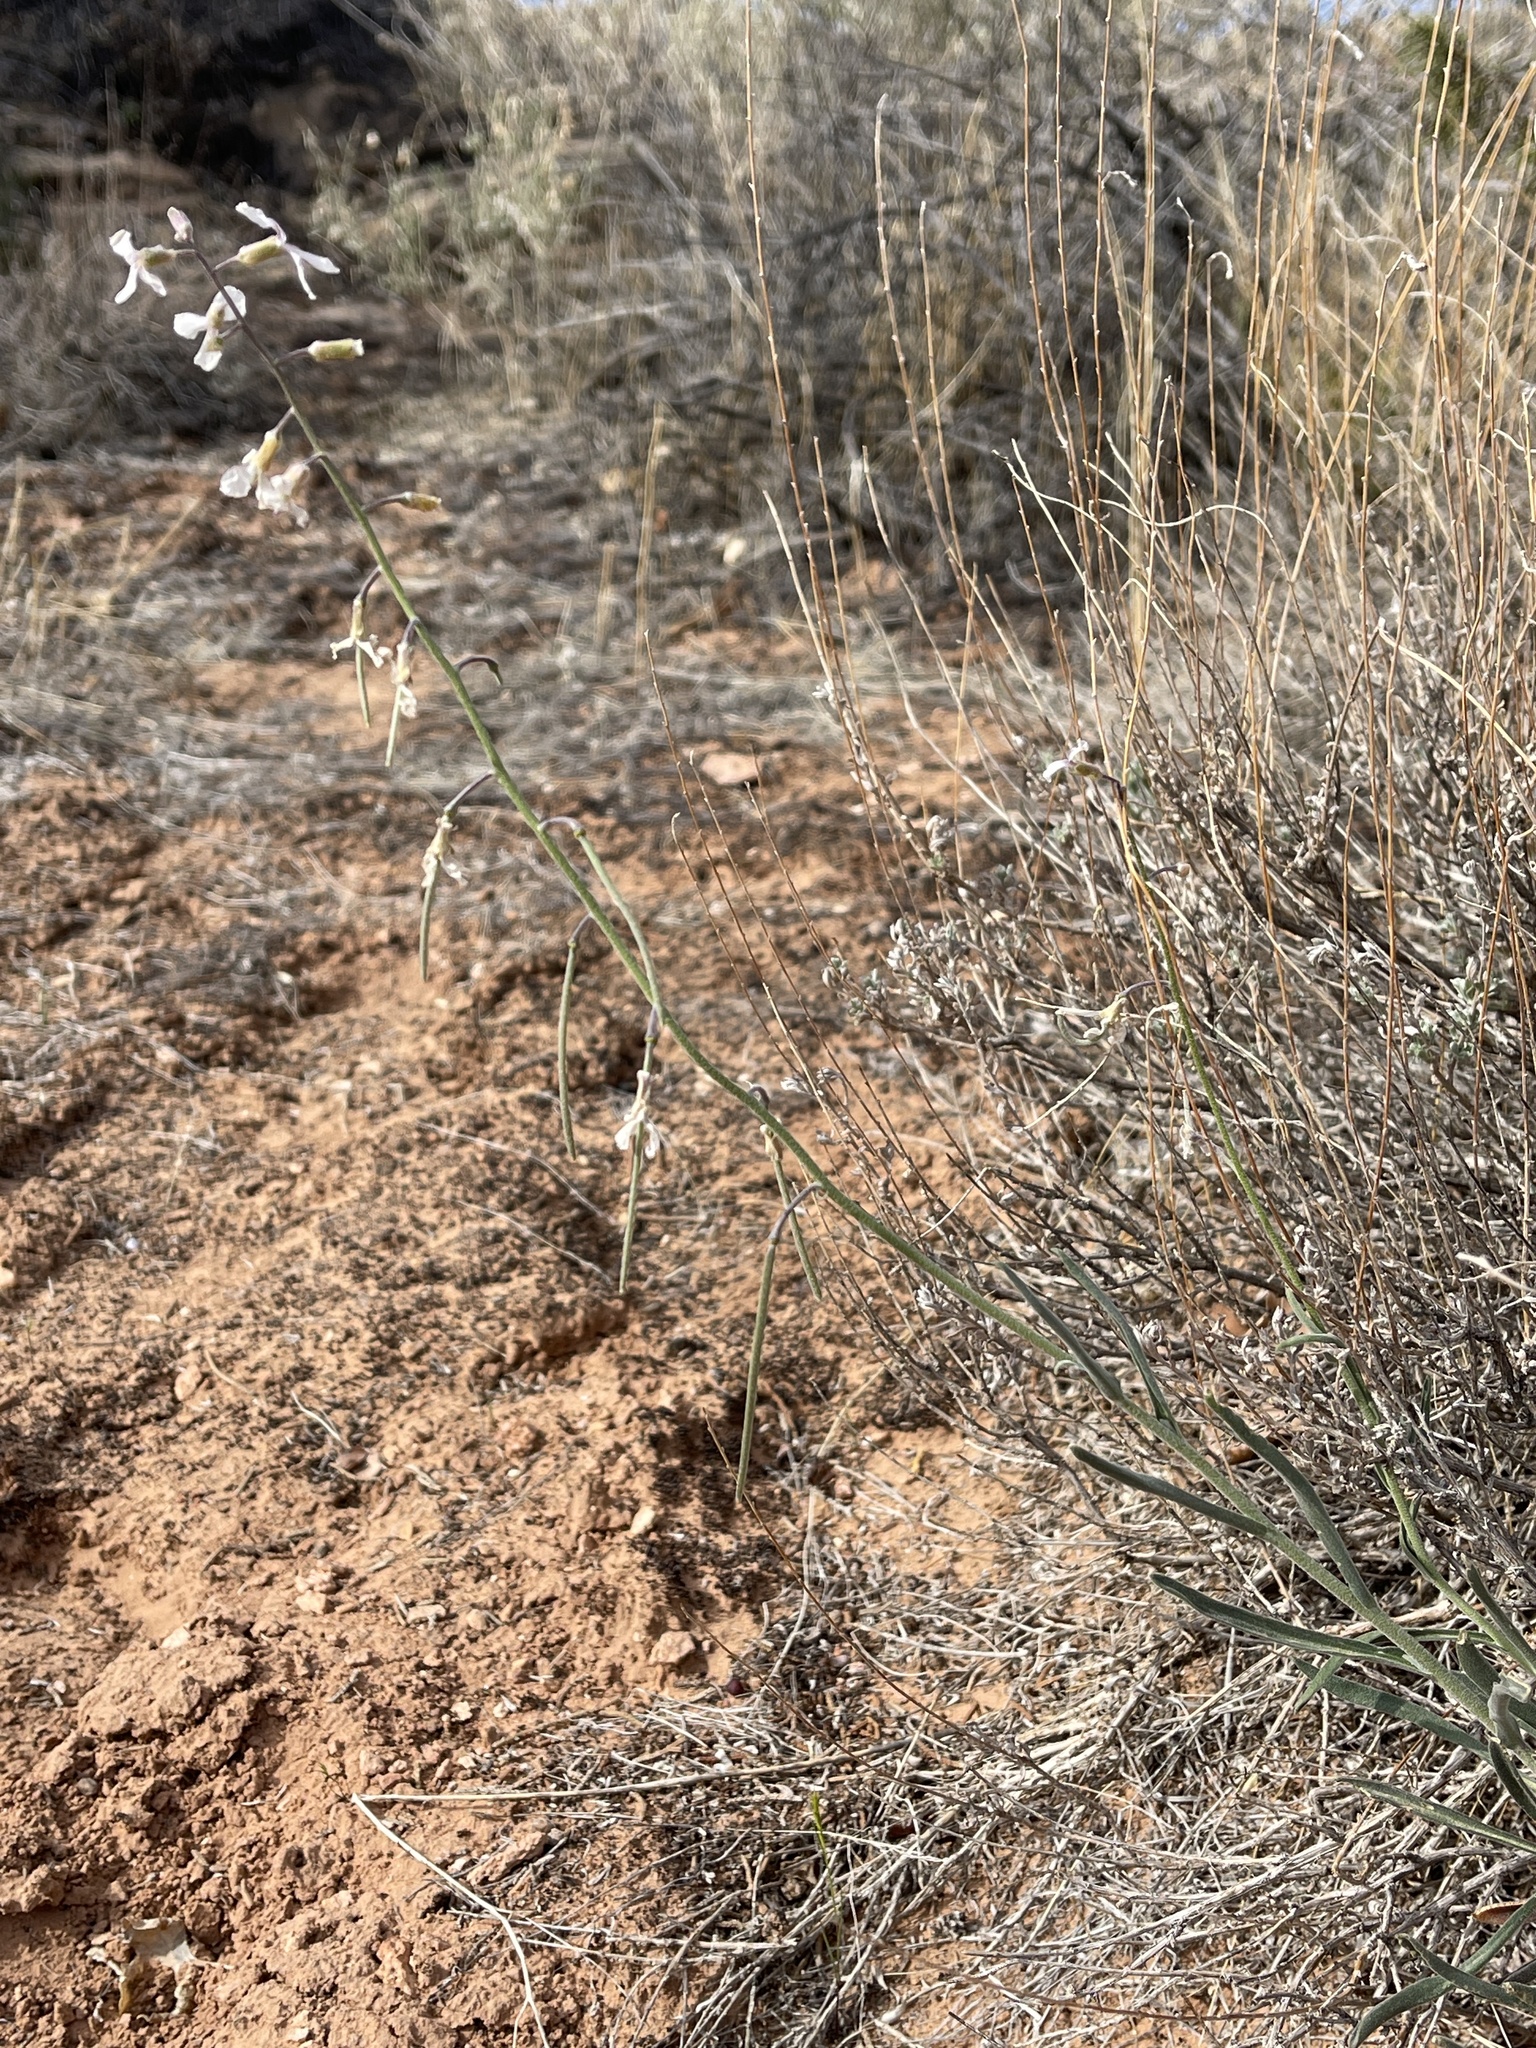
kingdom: Plantae
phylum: Tracheophyta
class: Magnoliopsida
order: Brassicales
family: Brassicaceae
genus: Boechera
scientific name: Boechera formosa
